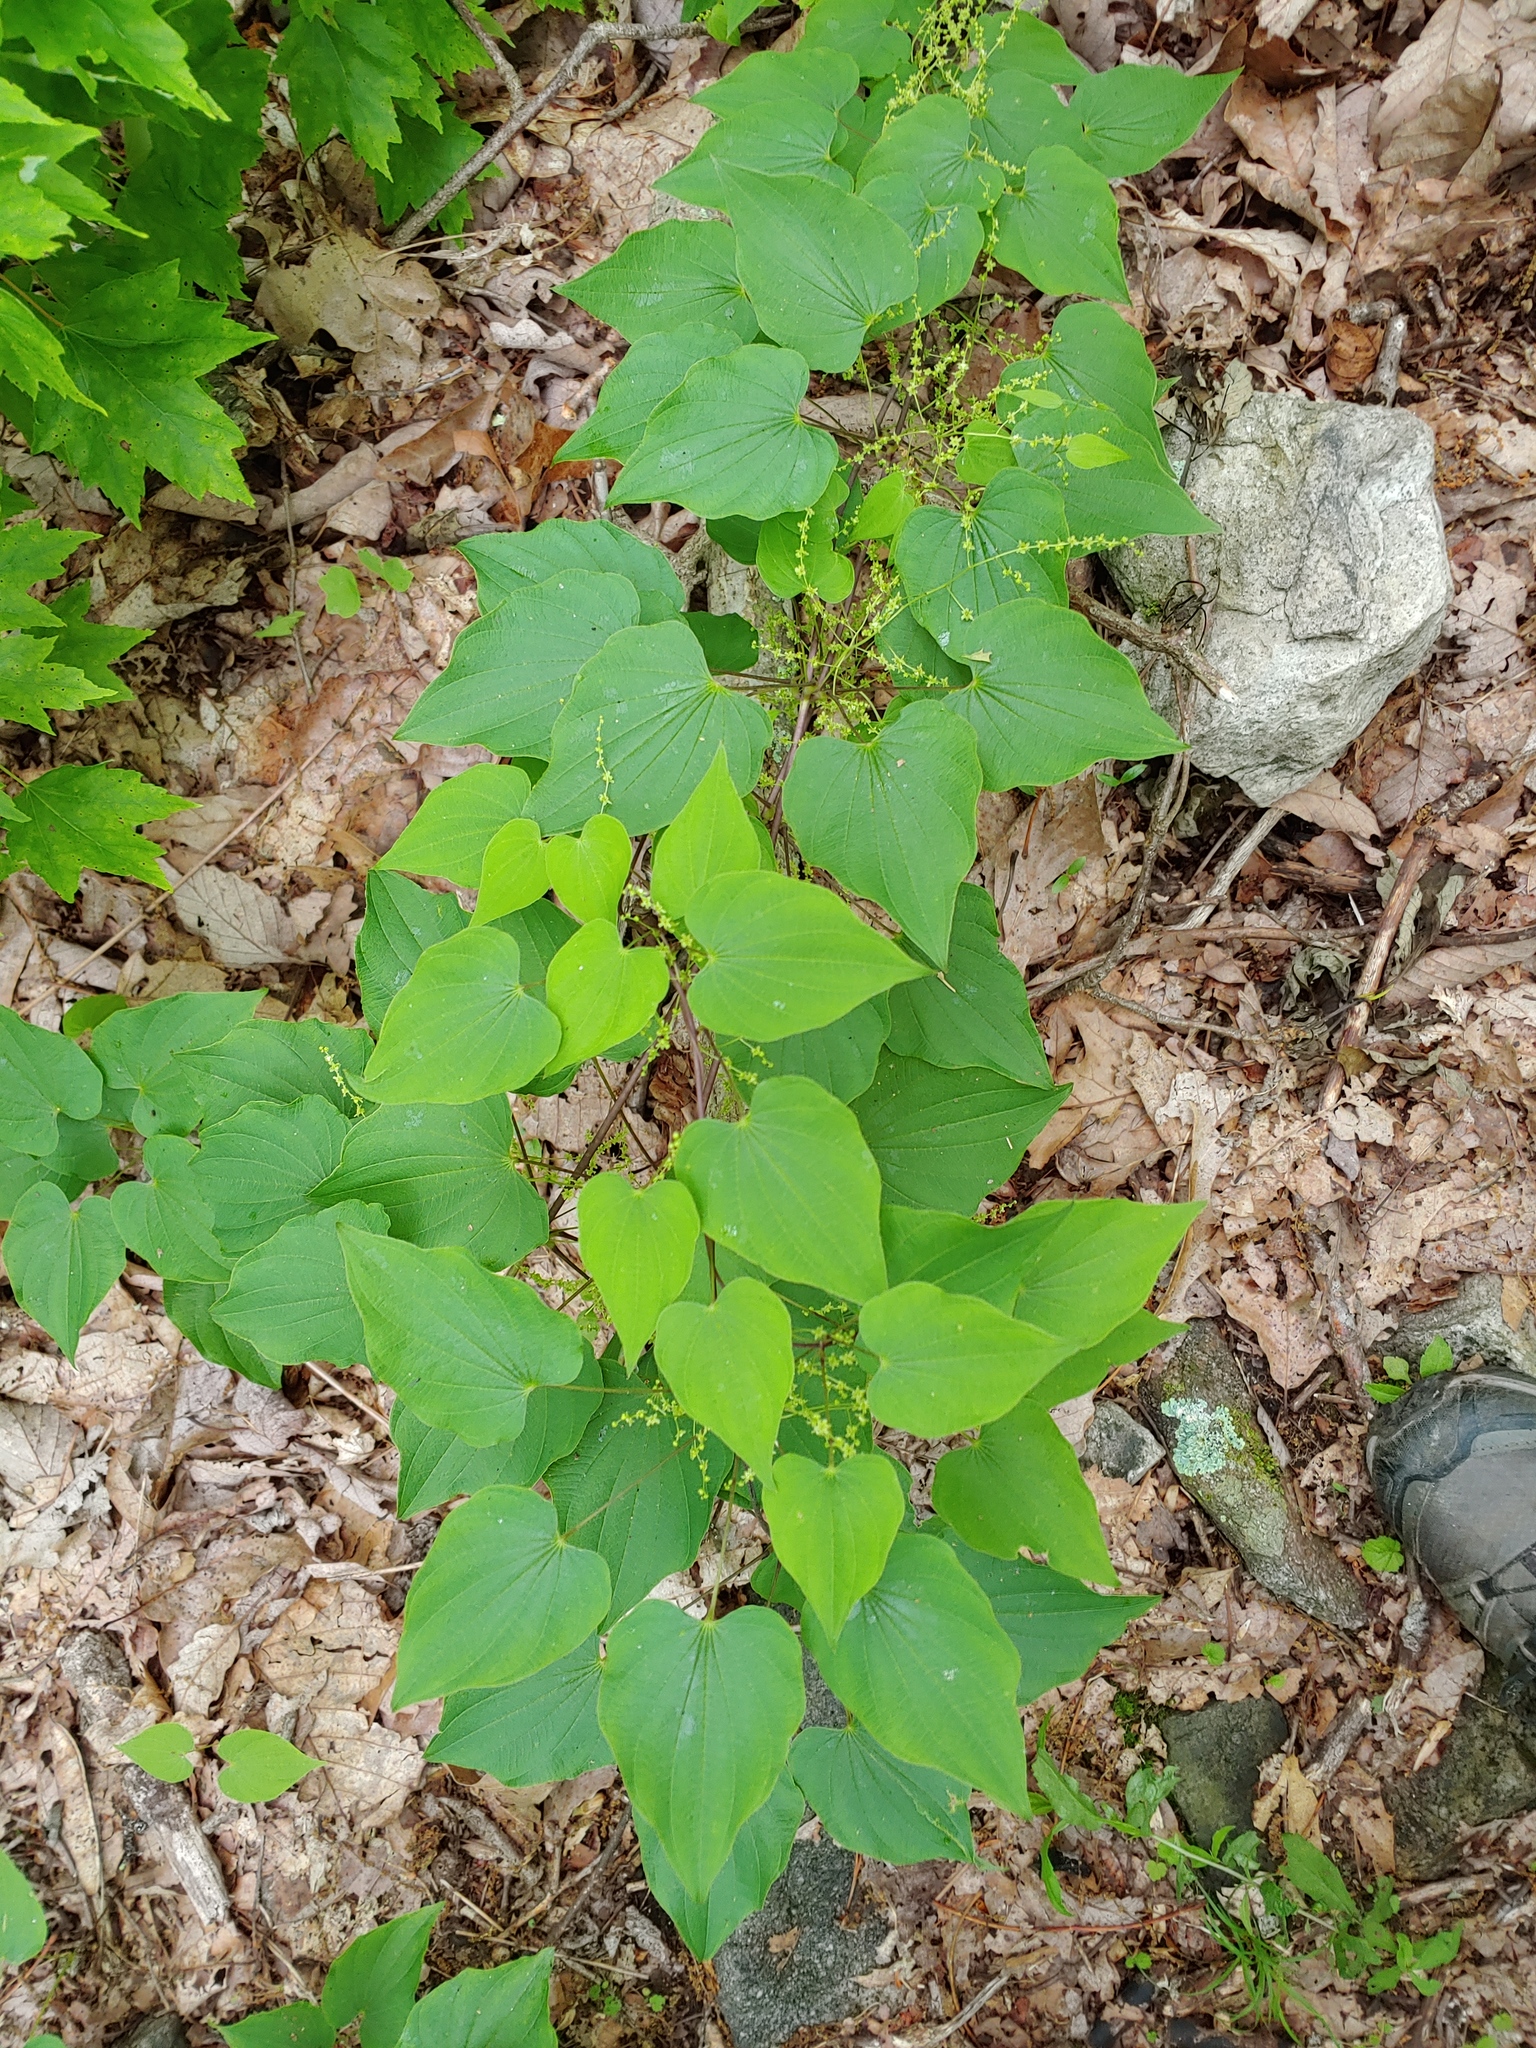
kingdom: Plantae
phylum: Tracheophyta
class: Liliopsida
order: Dioscoreales
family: Dioscoreaceae
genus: Dioscorea
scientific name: Dioscorea villosa
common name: Wild yam
